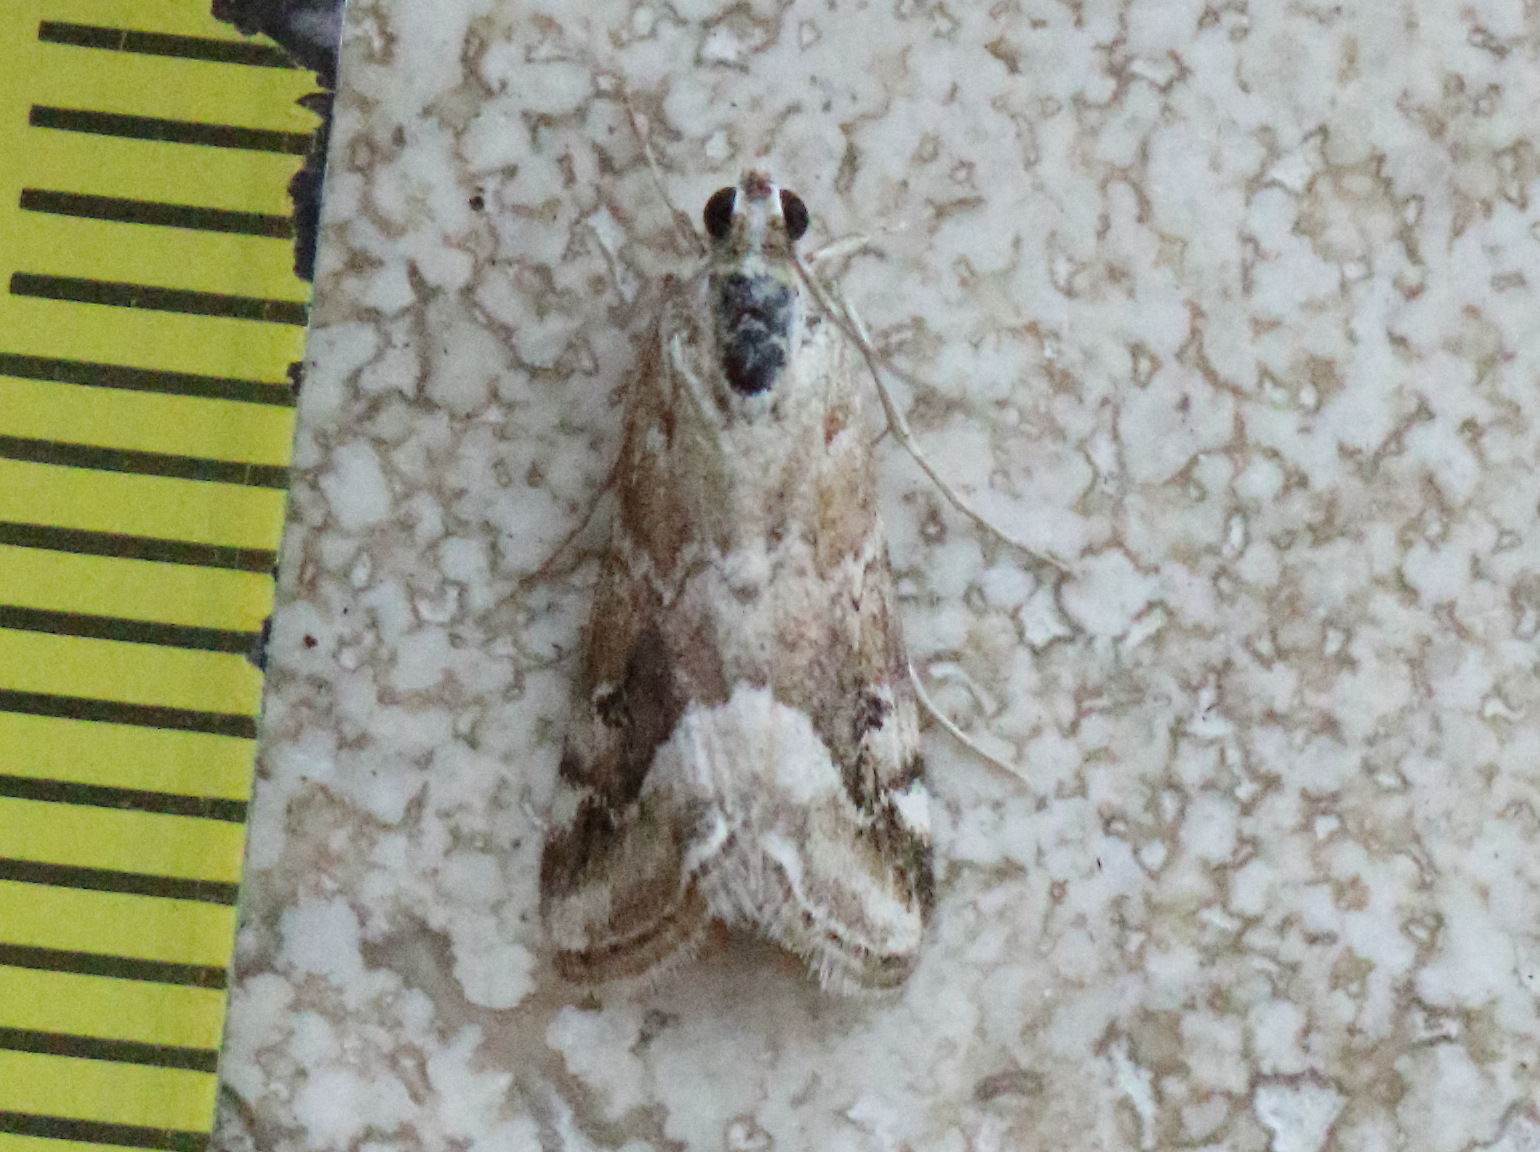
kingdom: Animalia
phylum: Arthropoda
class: Insecta
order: Lepidoptera
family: Crambidae
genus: Hellula
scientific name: Hellula hydralis
